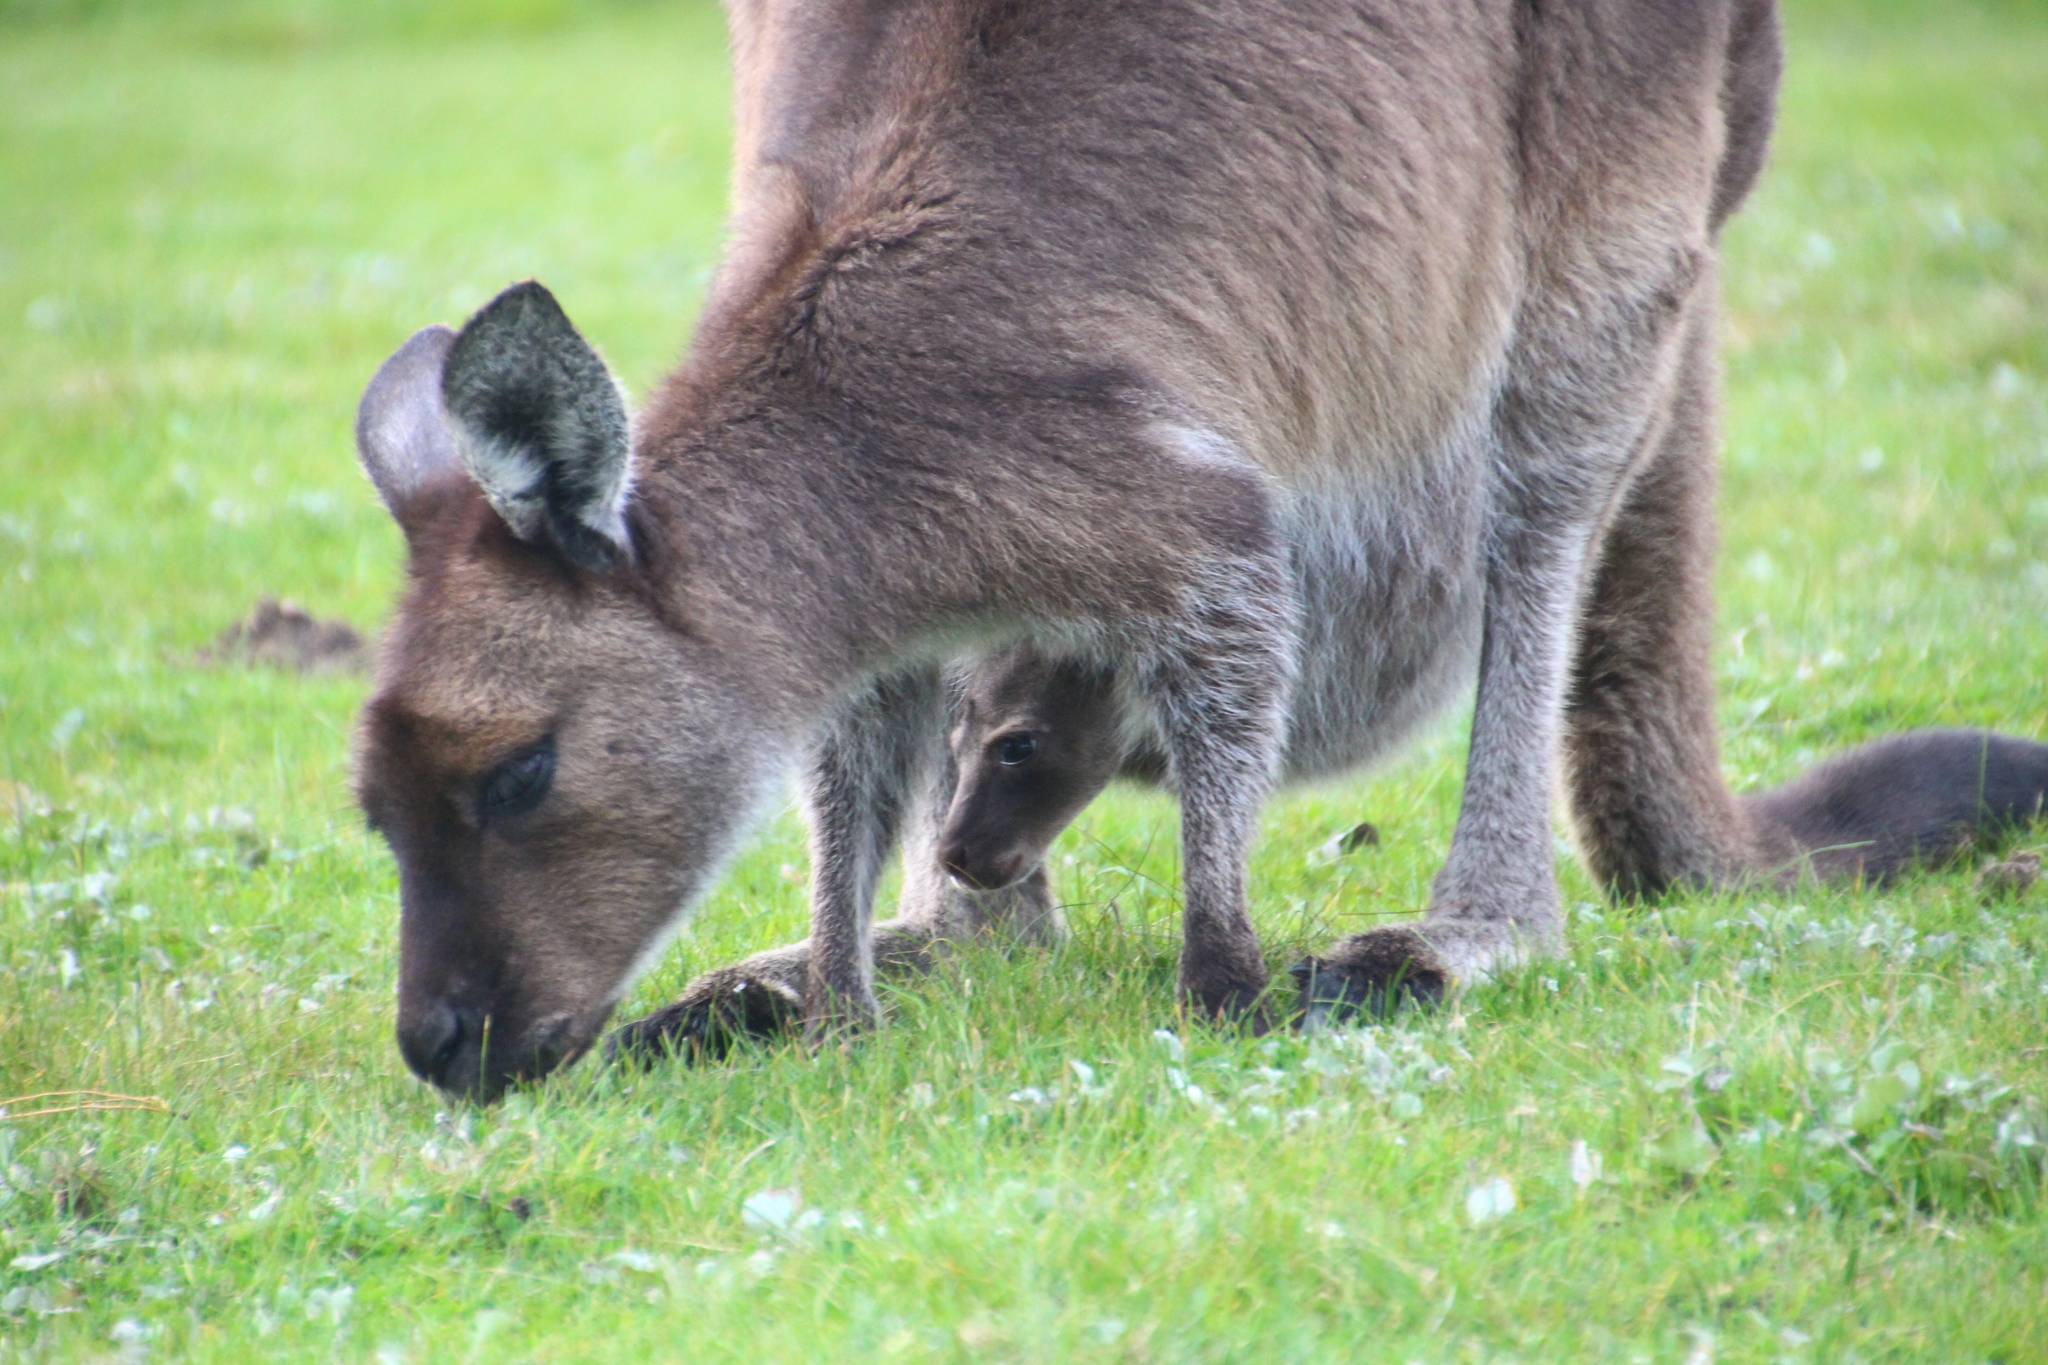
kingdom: Animalia
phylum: Chordata
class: Mammalia
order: Diprotodontia
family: Macropodidae
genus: Macropus
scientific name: Macropus fuliginosus
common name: Western grey kangaroo
